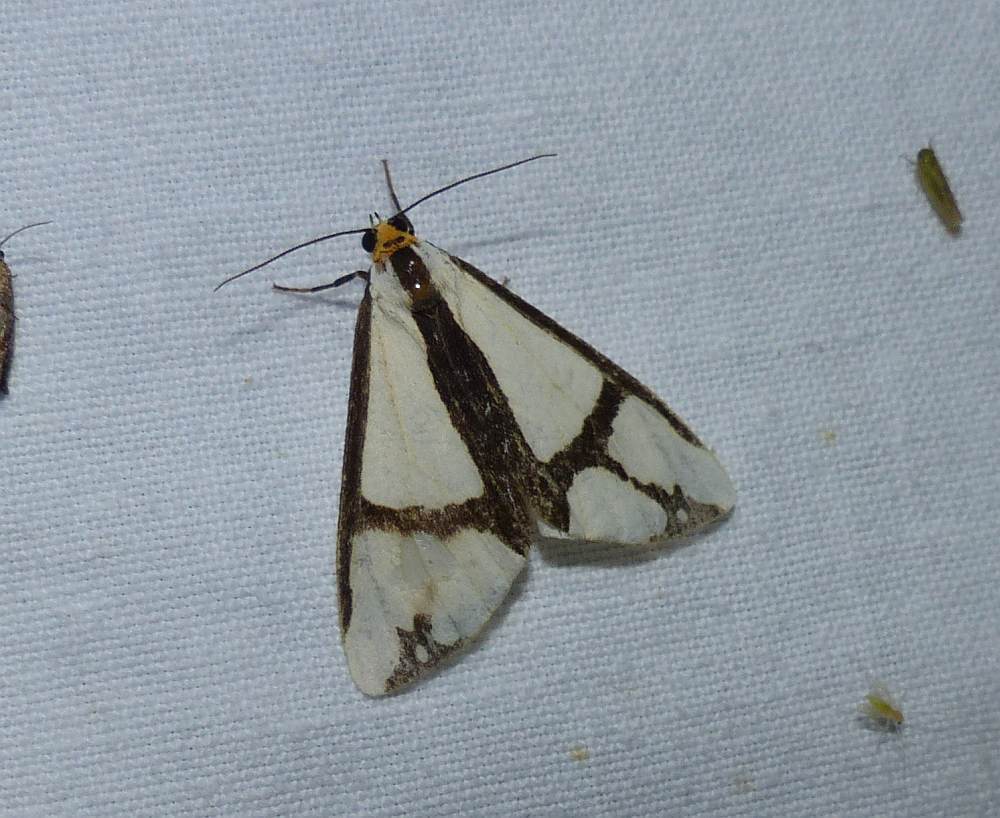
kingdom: Animalia
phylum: Arthropoda
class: Insecta
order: Lepidoptera
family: Erebidae
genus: Haploa
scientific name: Haploa contigua
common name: Neighbor moth
